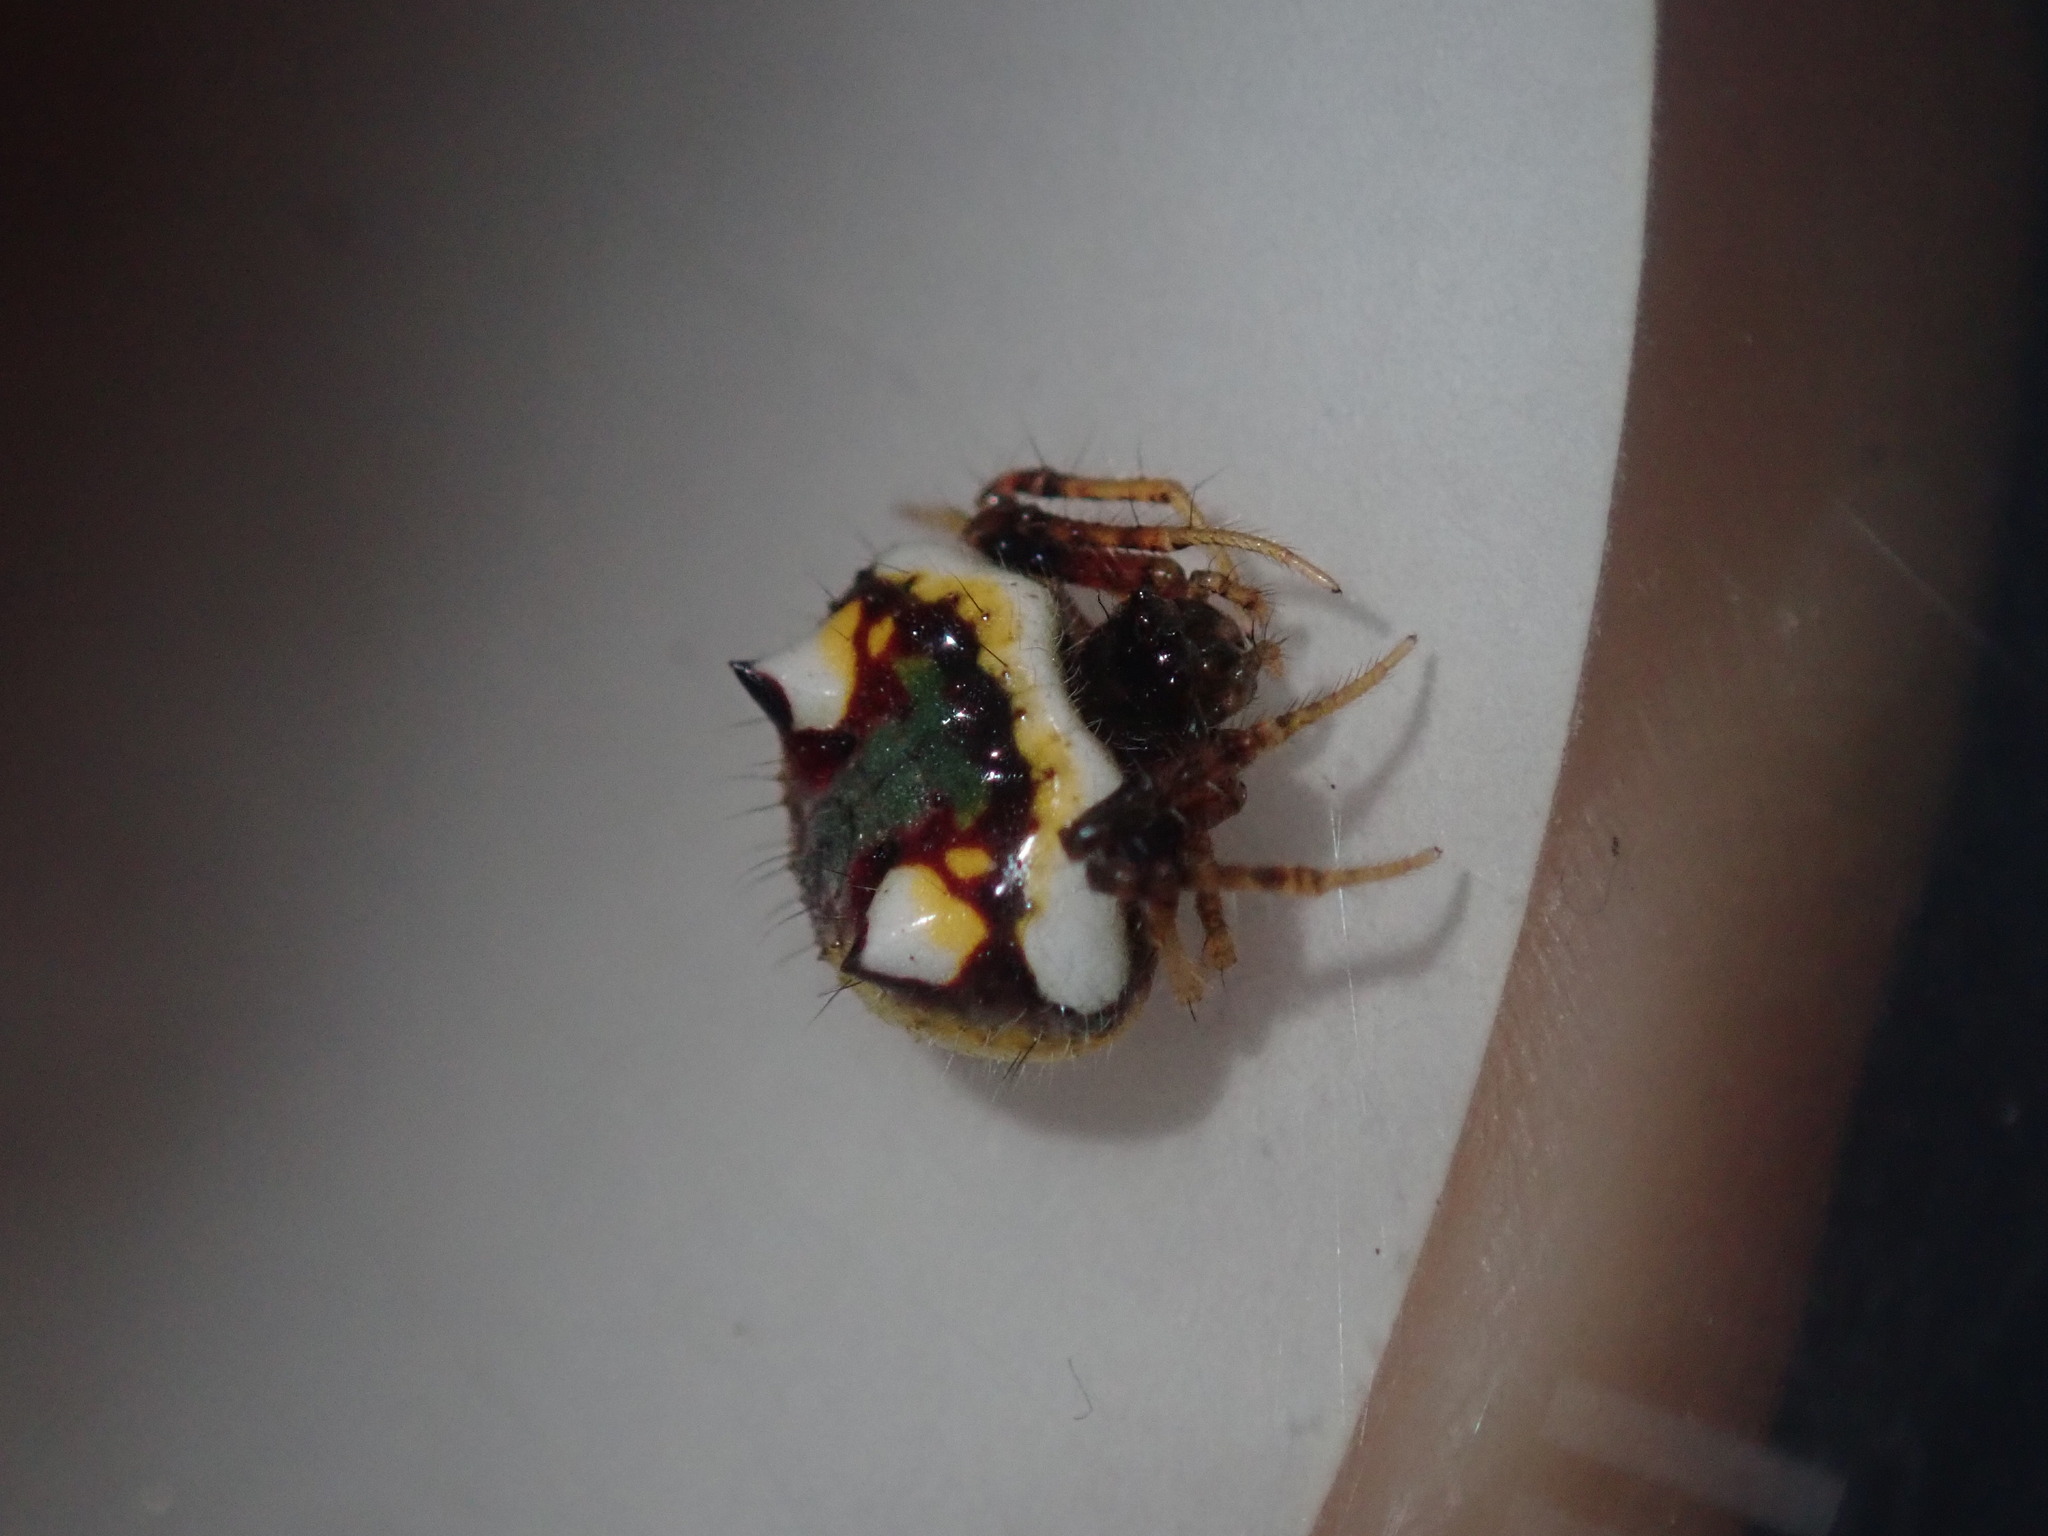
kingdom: Animalia
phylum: Arthropoda
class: Arachnida
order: Araneae
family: Araneidae
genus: Poecilopachys
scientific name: Poecilopachys australasia
